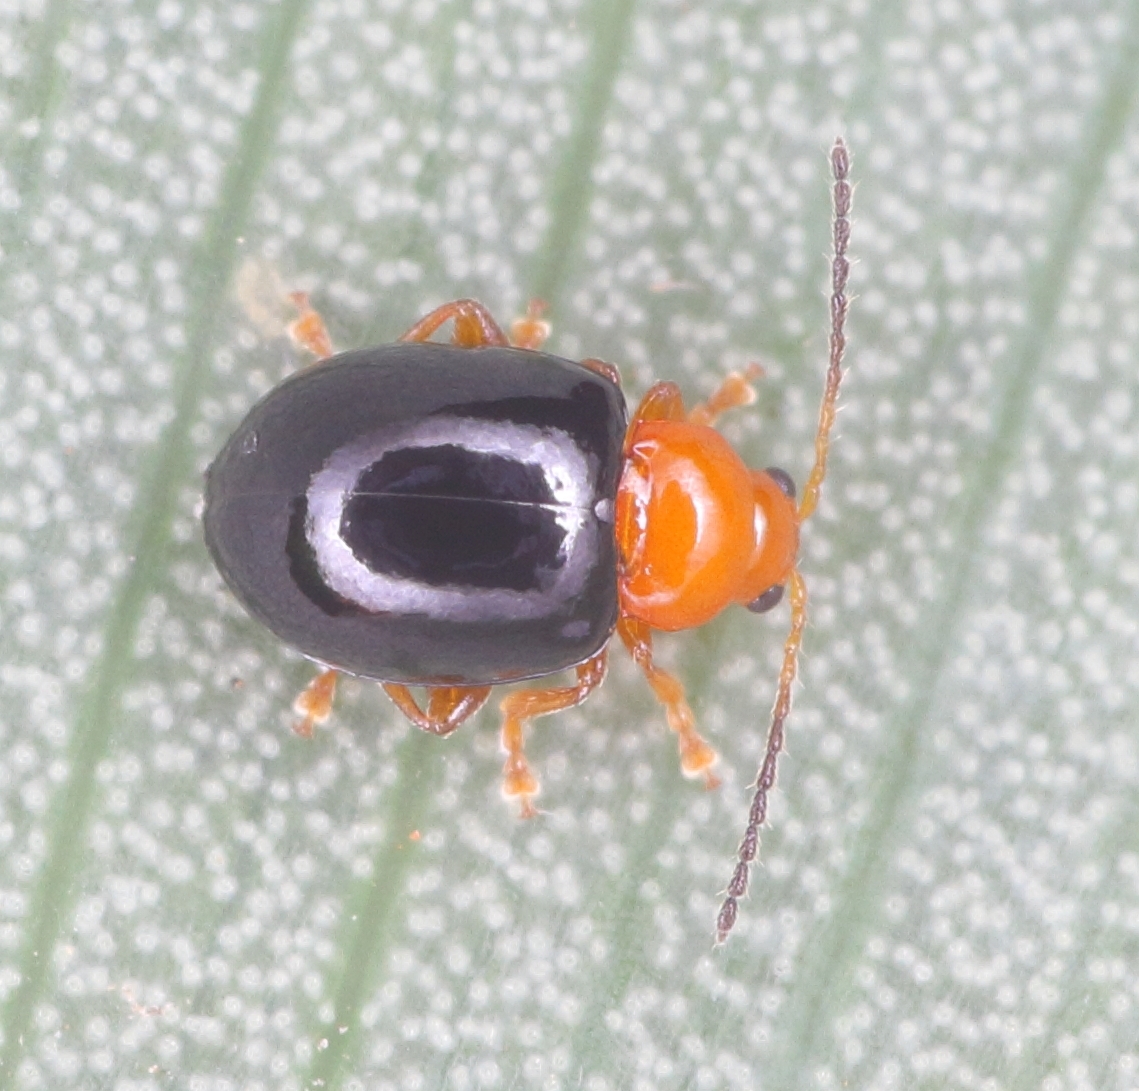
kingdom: Animalia
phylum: Arthropoda
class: Insecta
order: Coleoptera
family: Chrysomelidae
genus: Stuckenbergiana
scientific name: Stuckenbergiana
